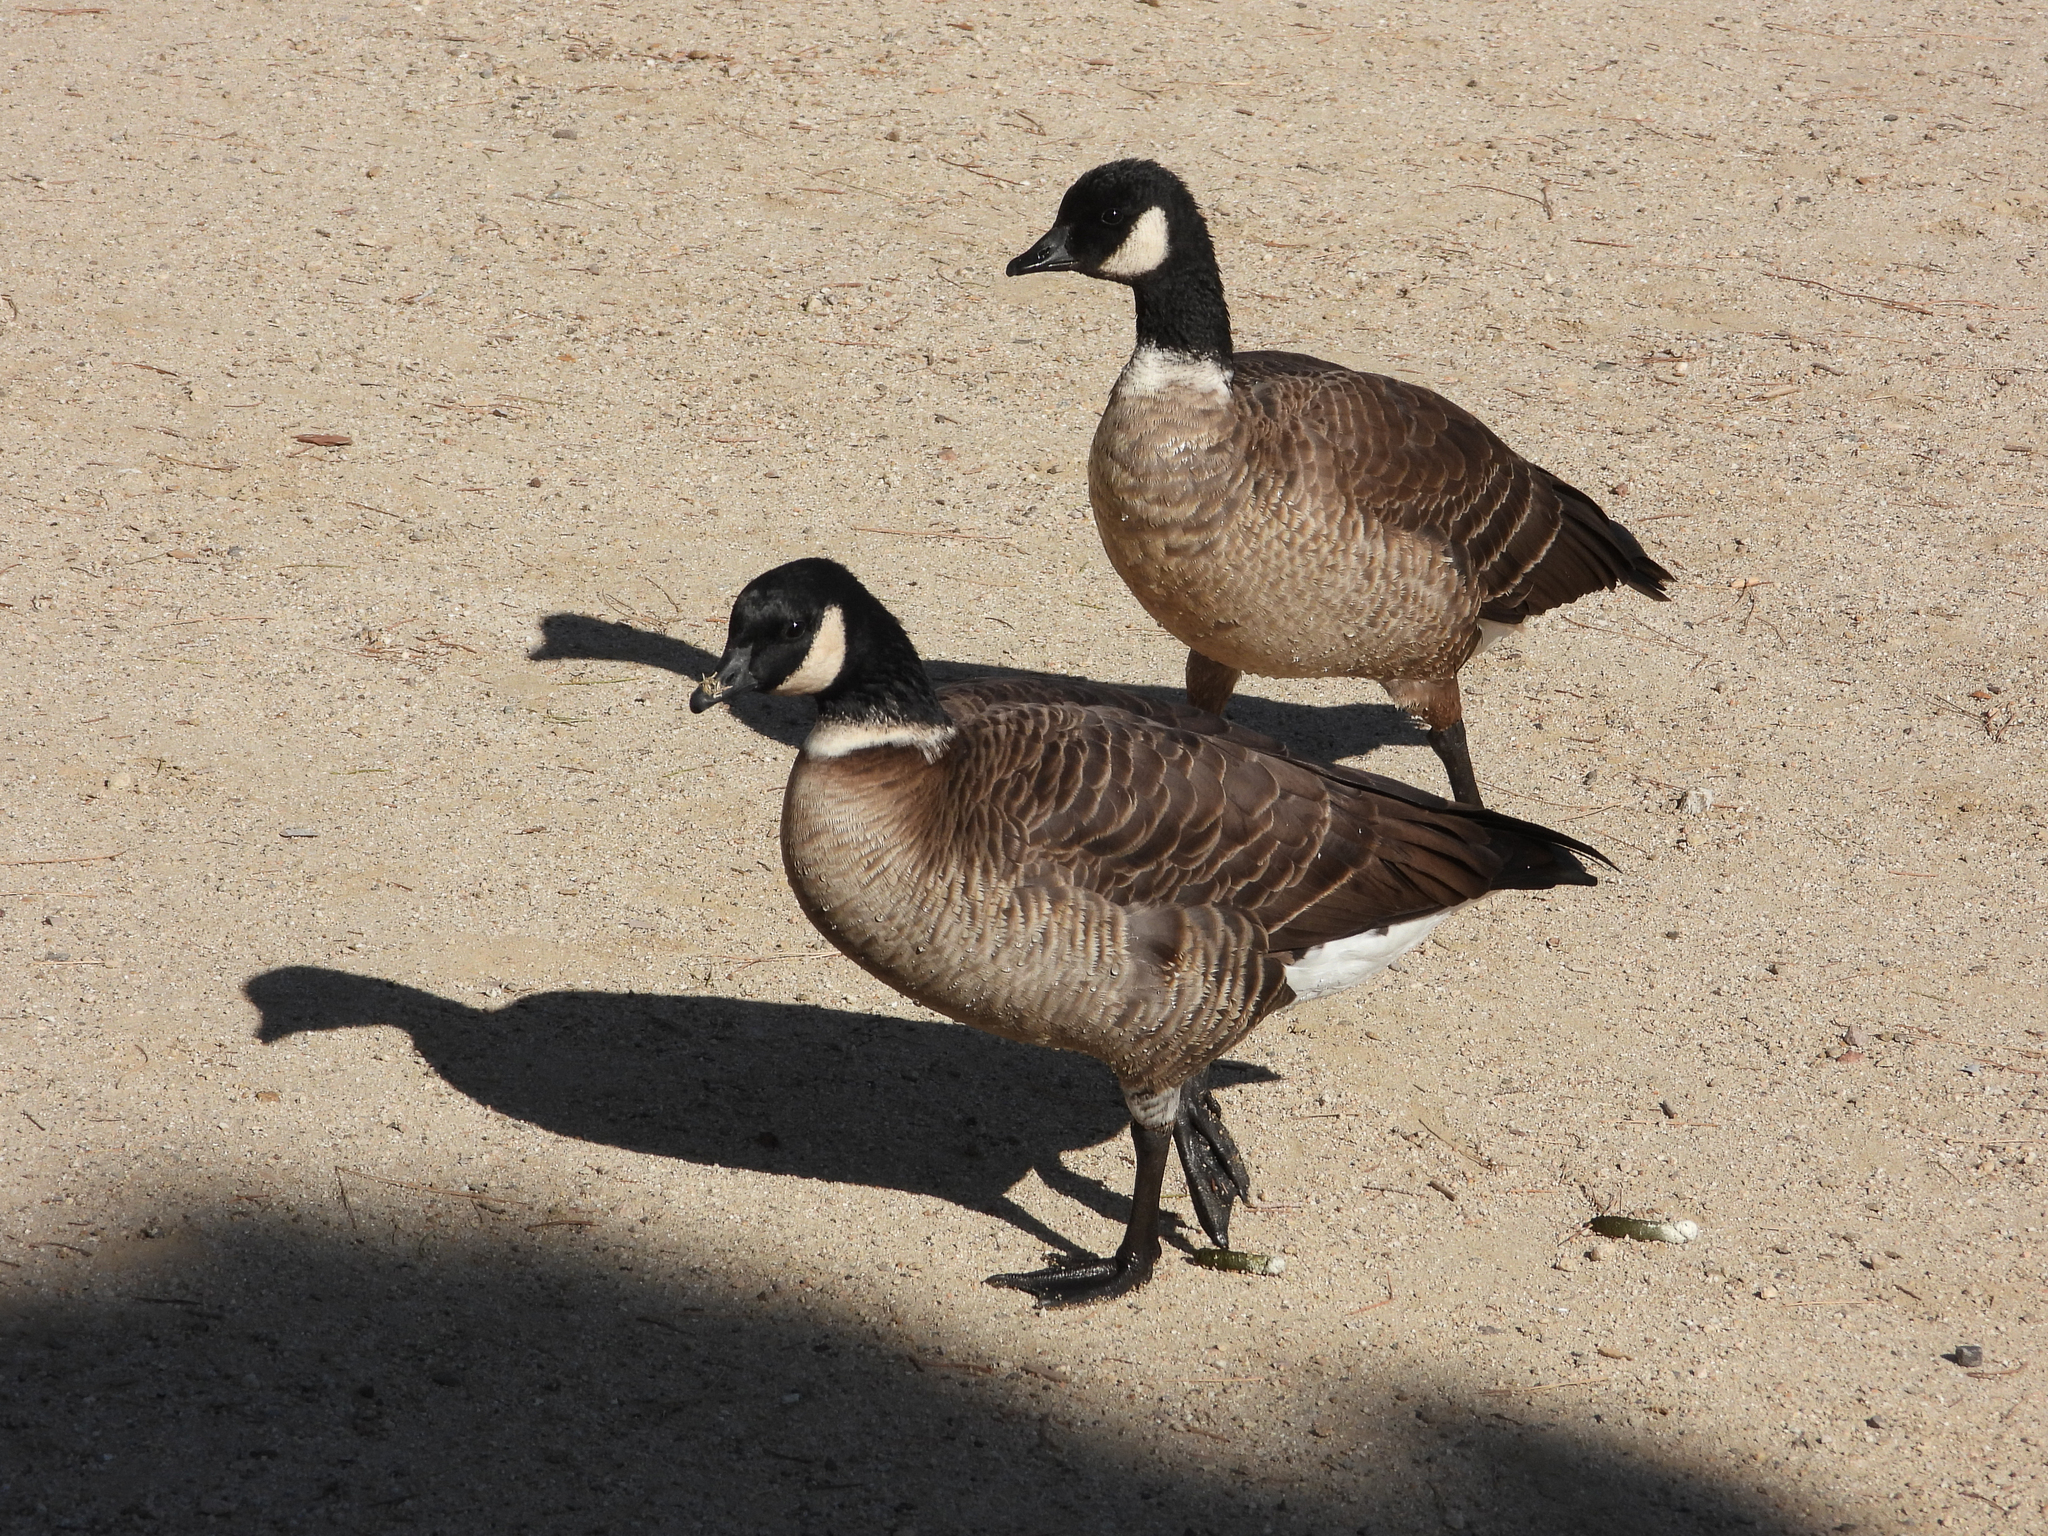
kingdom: Animalia
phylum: Chordata
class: Aves
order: Anseriformes
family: Anatidae
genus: Branta
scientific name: Branta hutchinsii
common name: Cackling goose
